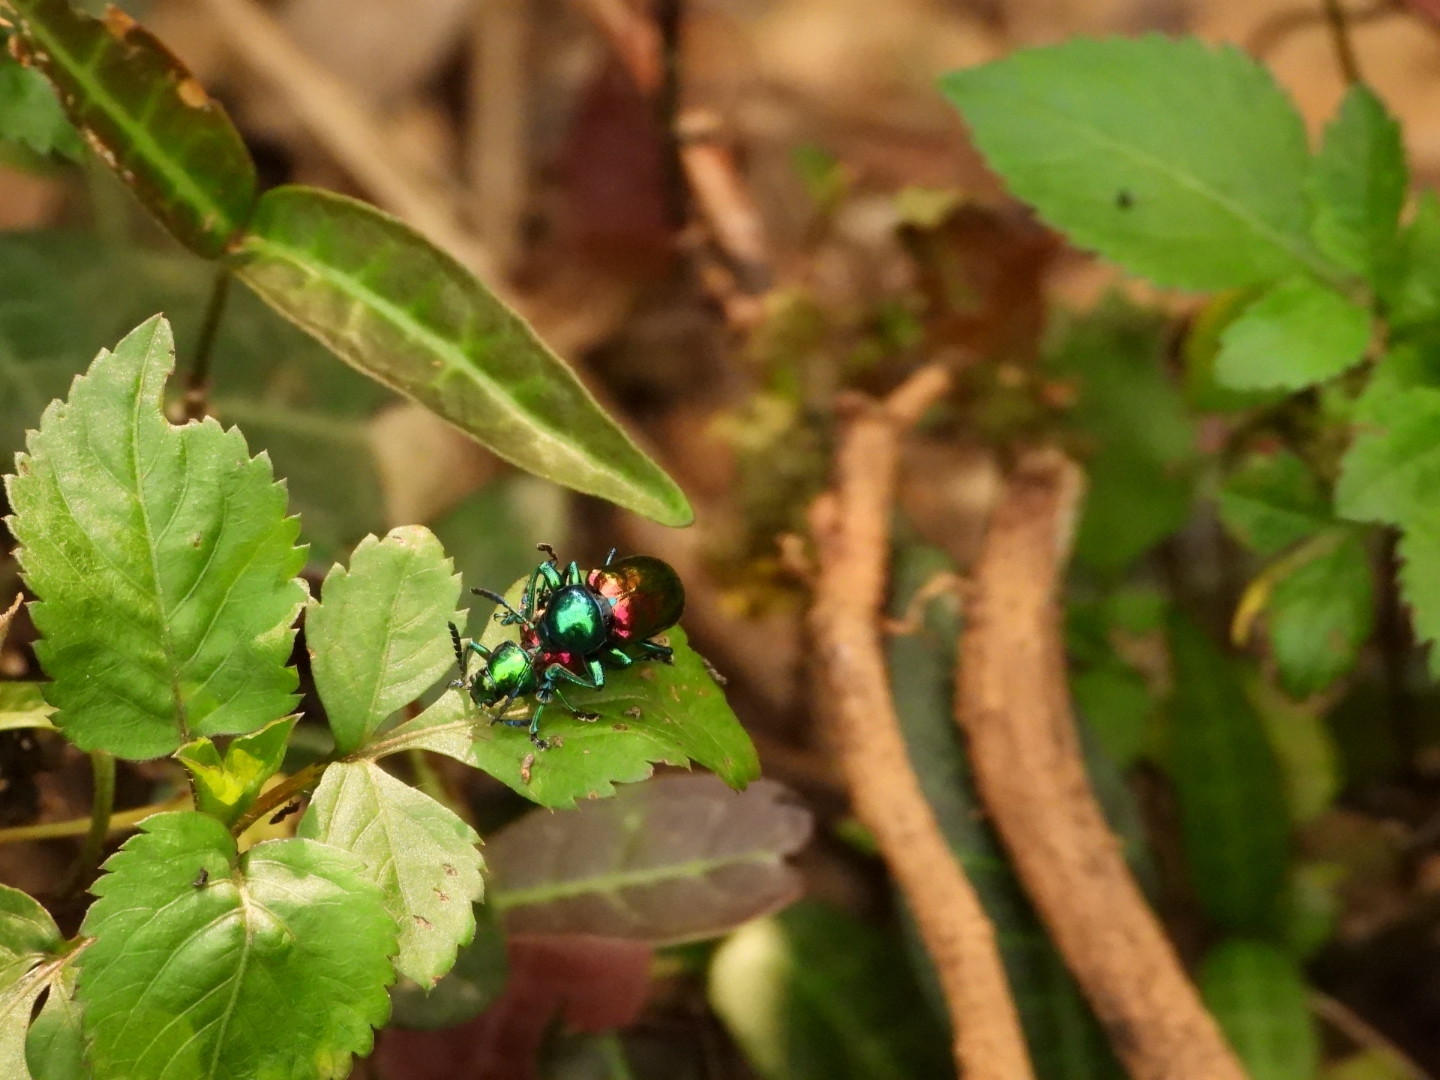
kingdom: Animalia
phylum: Arthropoda
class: Insecta
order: Coleoptera
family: Chrysomelidae
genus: Platycorynus
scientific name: Platycorynus sauteri
